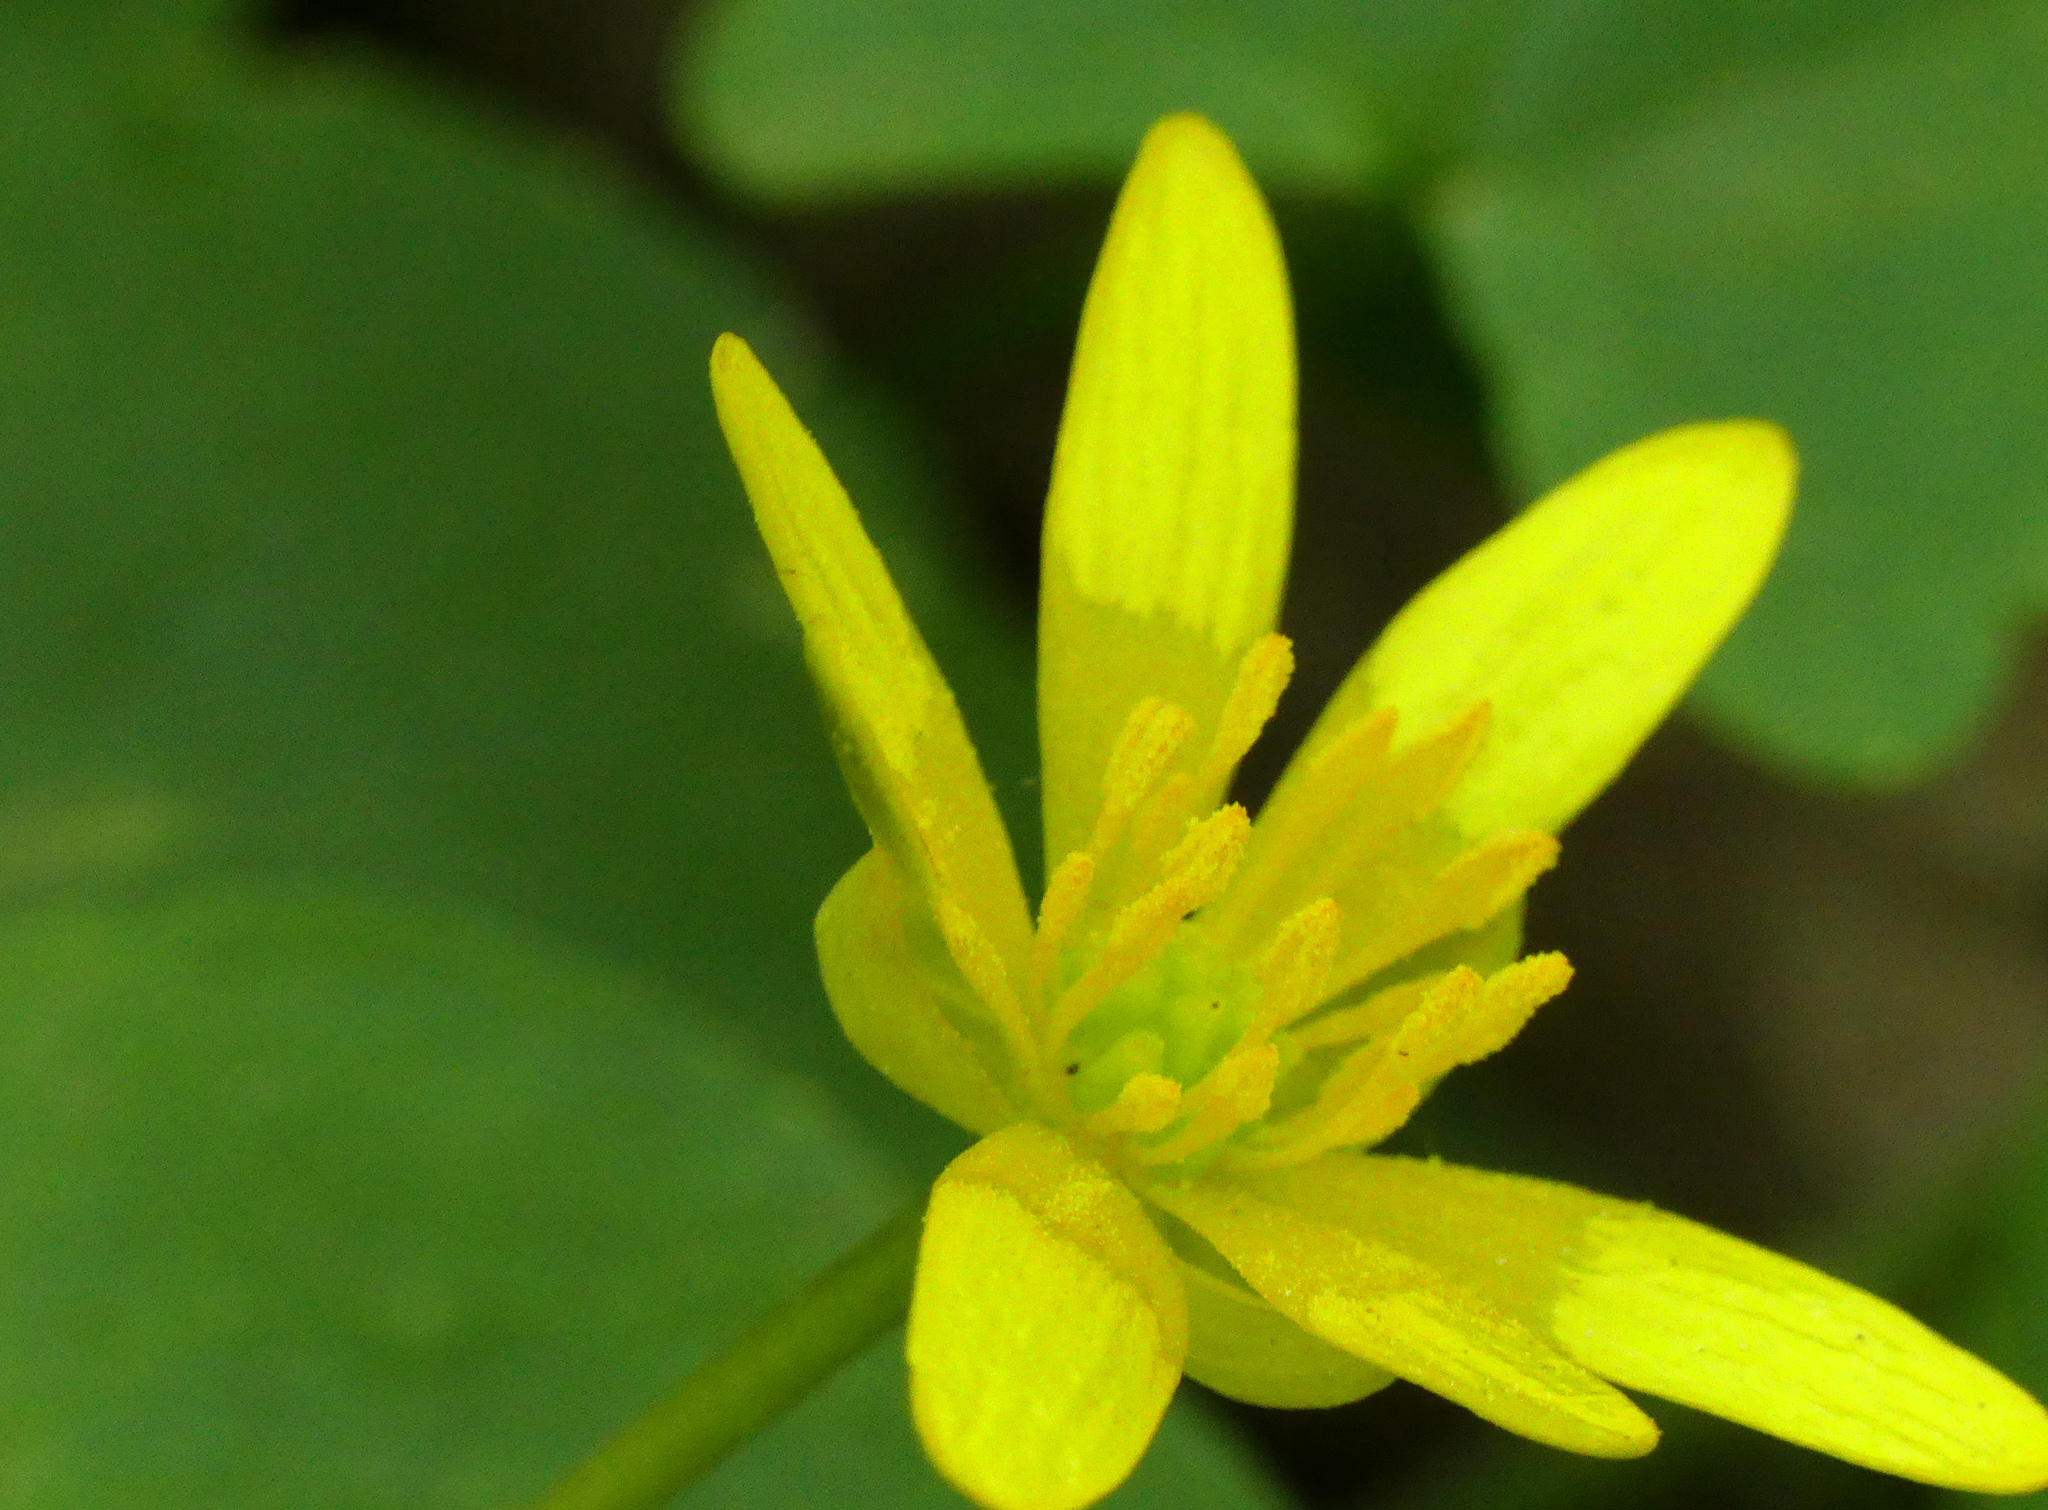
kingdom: Plantae
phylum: Tracheophyta
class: Magnoliopsida
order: Ranunculales
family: Ranunculaceae
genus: Ficaria
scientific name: Ficaria verna
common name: Lesser celandine
